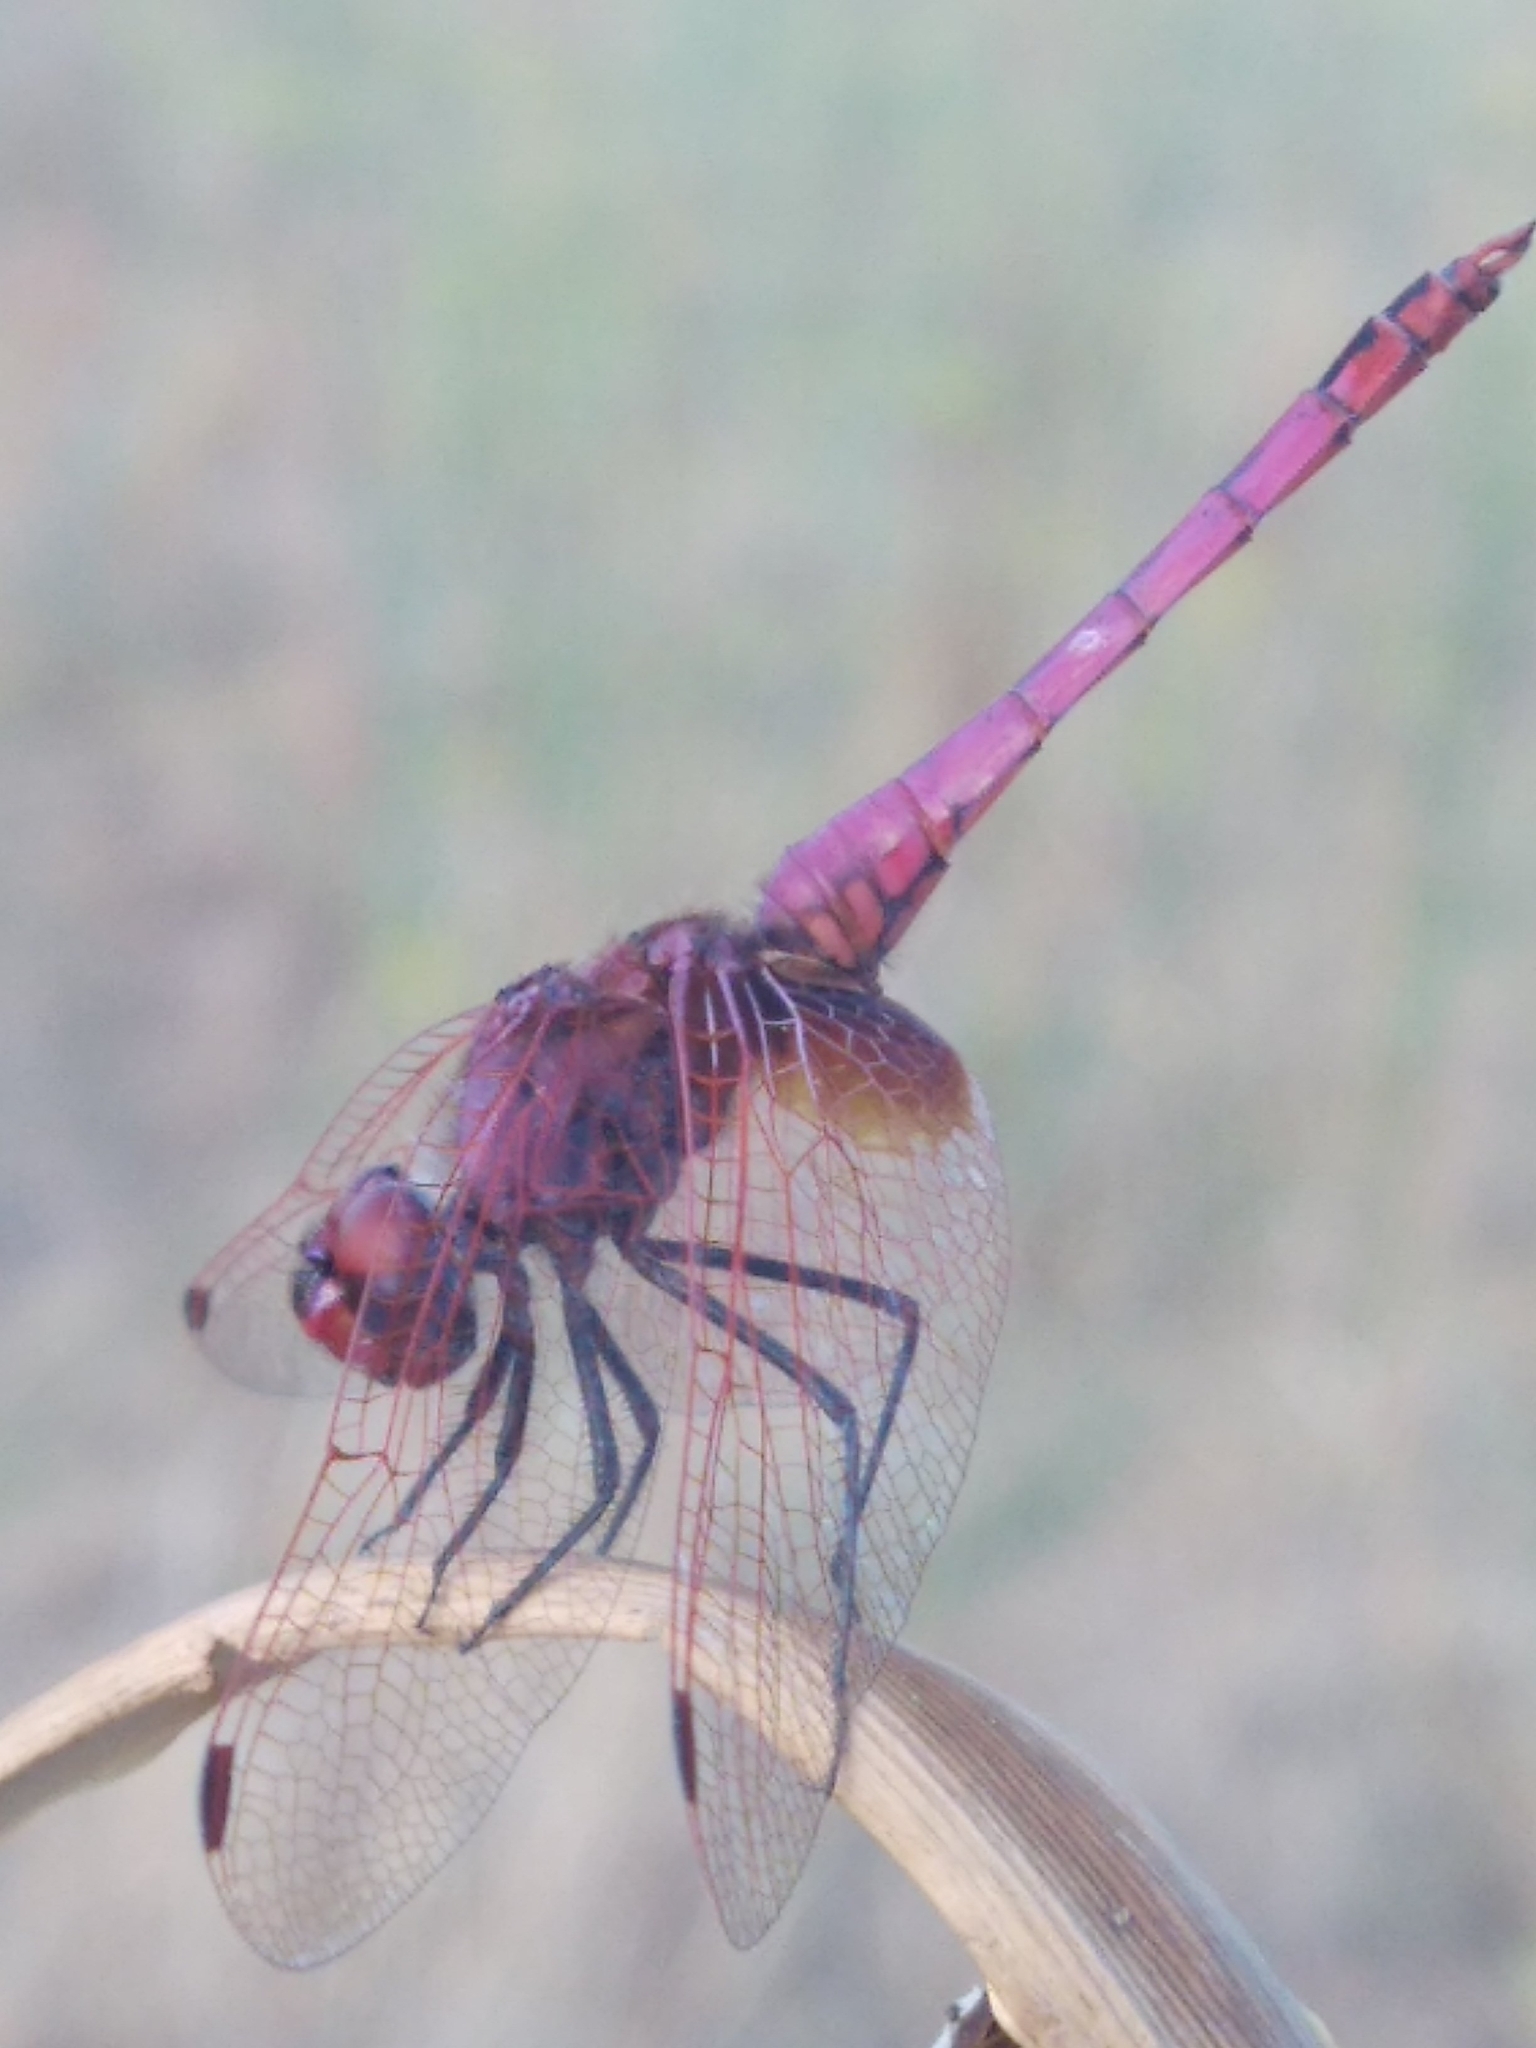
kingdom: Animalia
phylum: Arthropoda
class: Insecta
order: Odonata
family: Libellulidae
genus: Trithemis
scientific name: Trithemis annulata
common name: Violet dropwing
